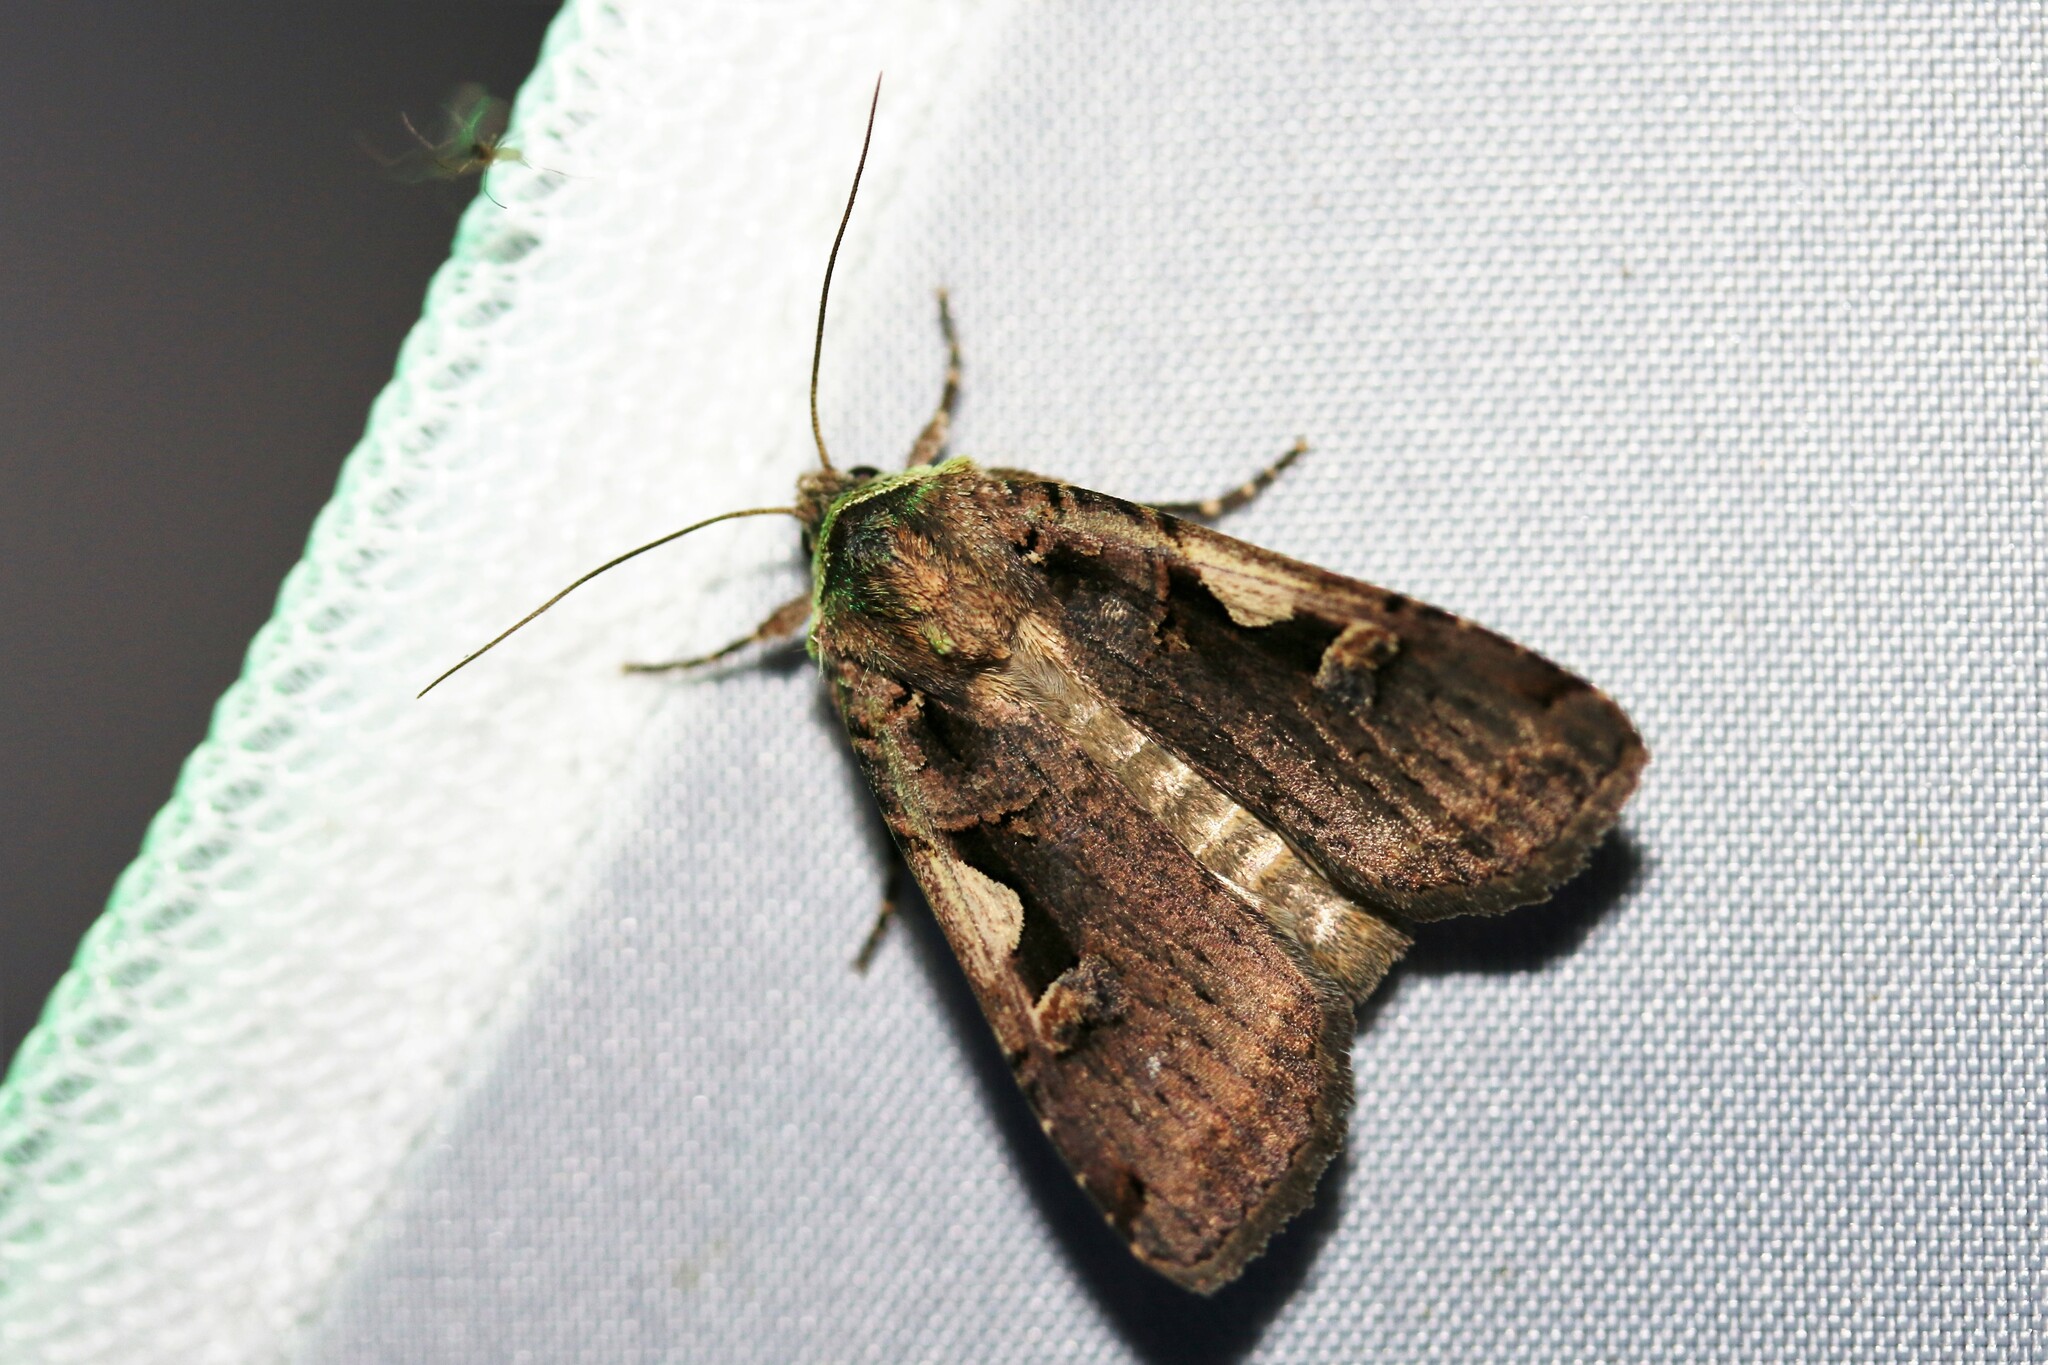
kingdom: Animalia
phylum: Arthropoda
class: Insecta
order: Lepidoptera
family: Noctuidae
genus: Xestia
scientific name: Xestia c-nigrum
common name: Setaceous hebrew character
